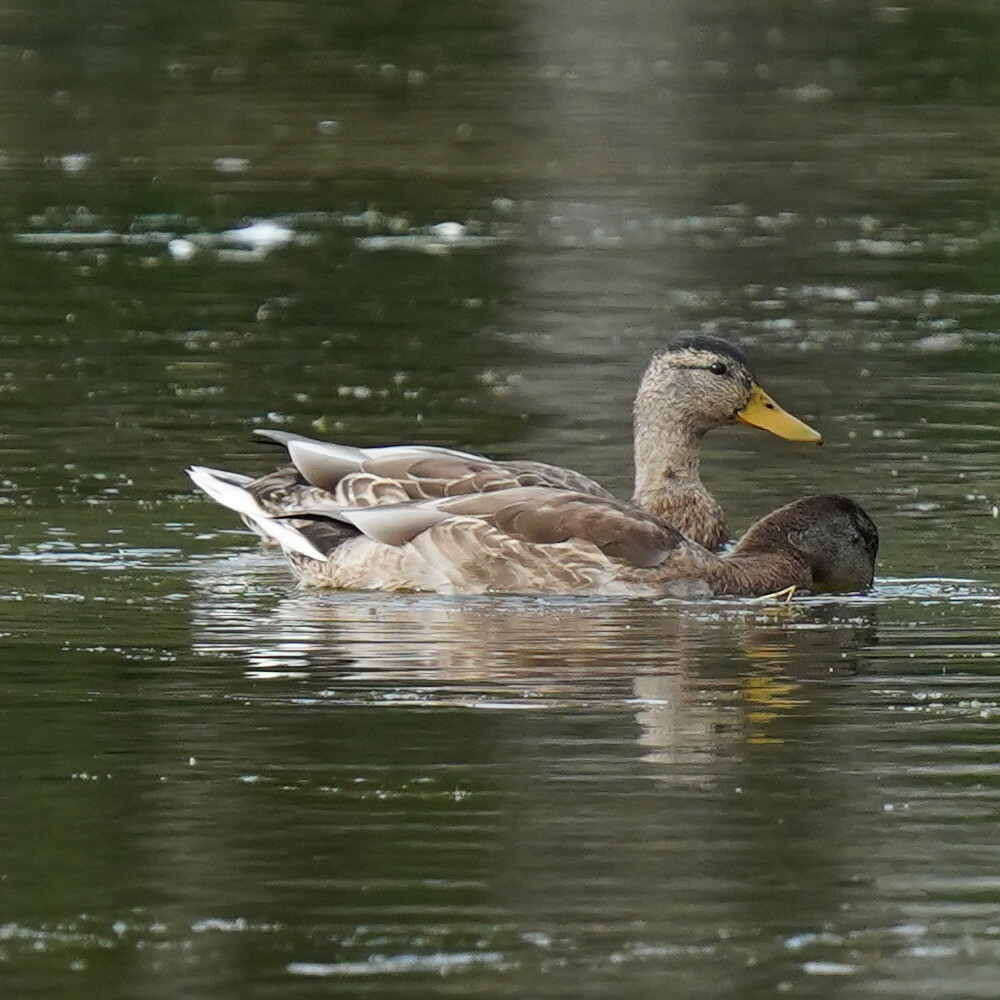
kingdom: Animalia
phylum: Chordata
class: Aves
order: Anseriformes
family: Anatidae
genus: Anas
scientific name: Anas platyrhynchos
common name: Mallard
